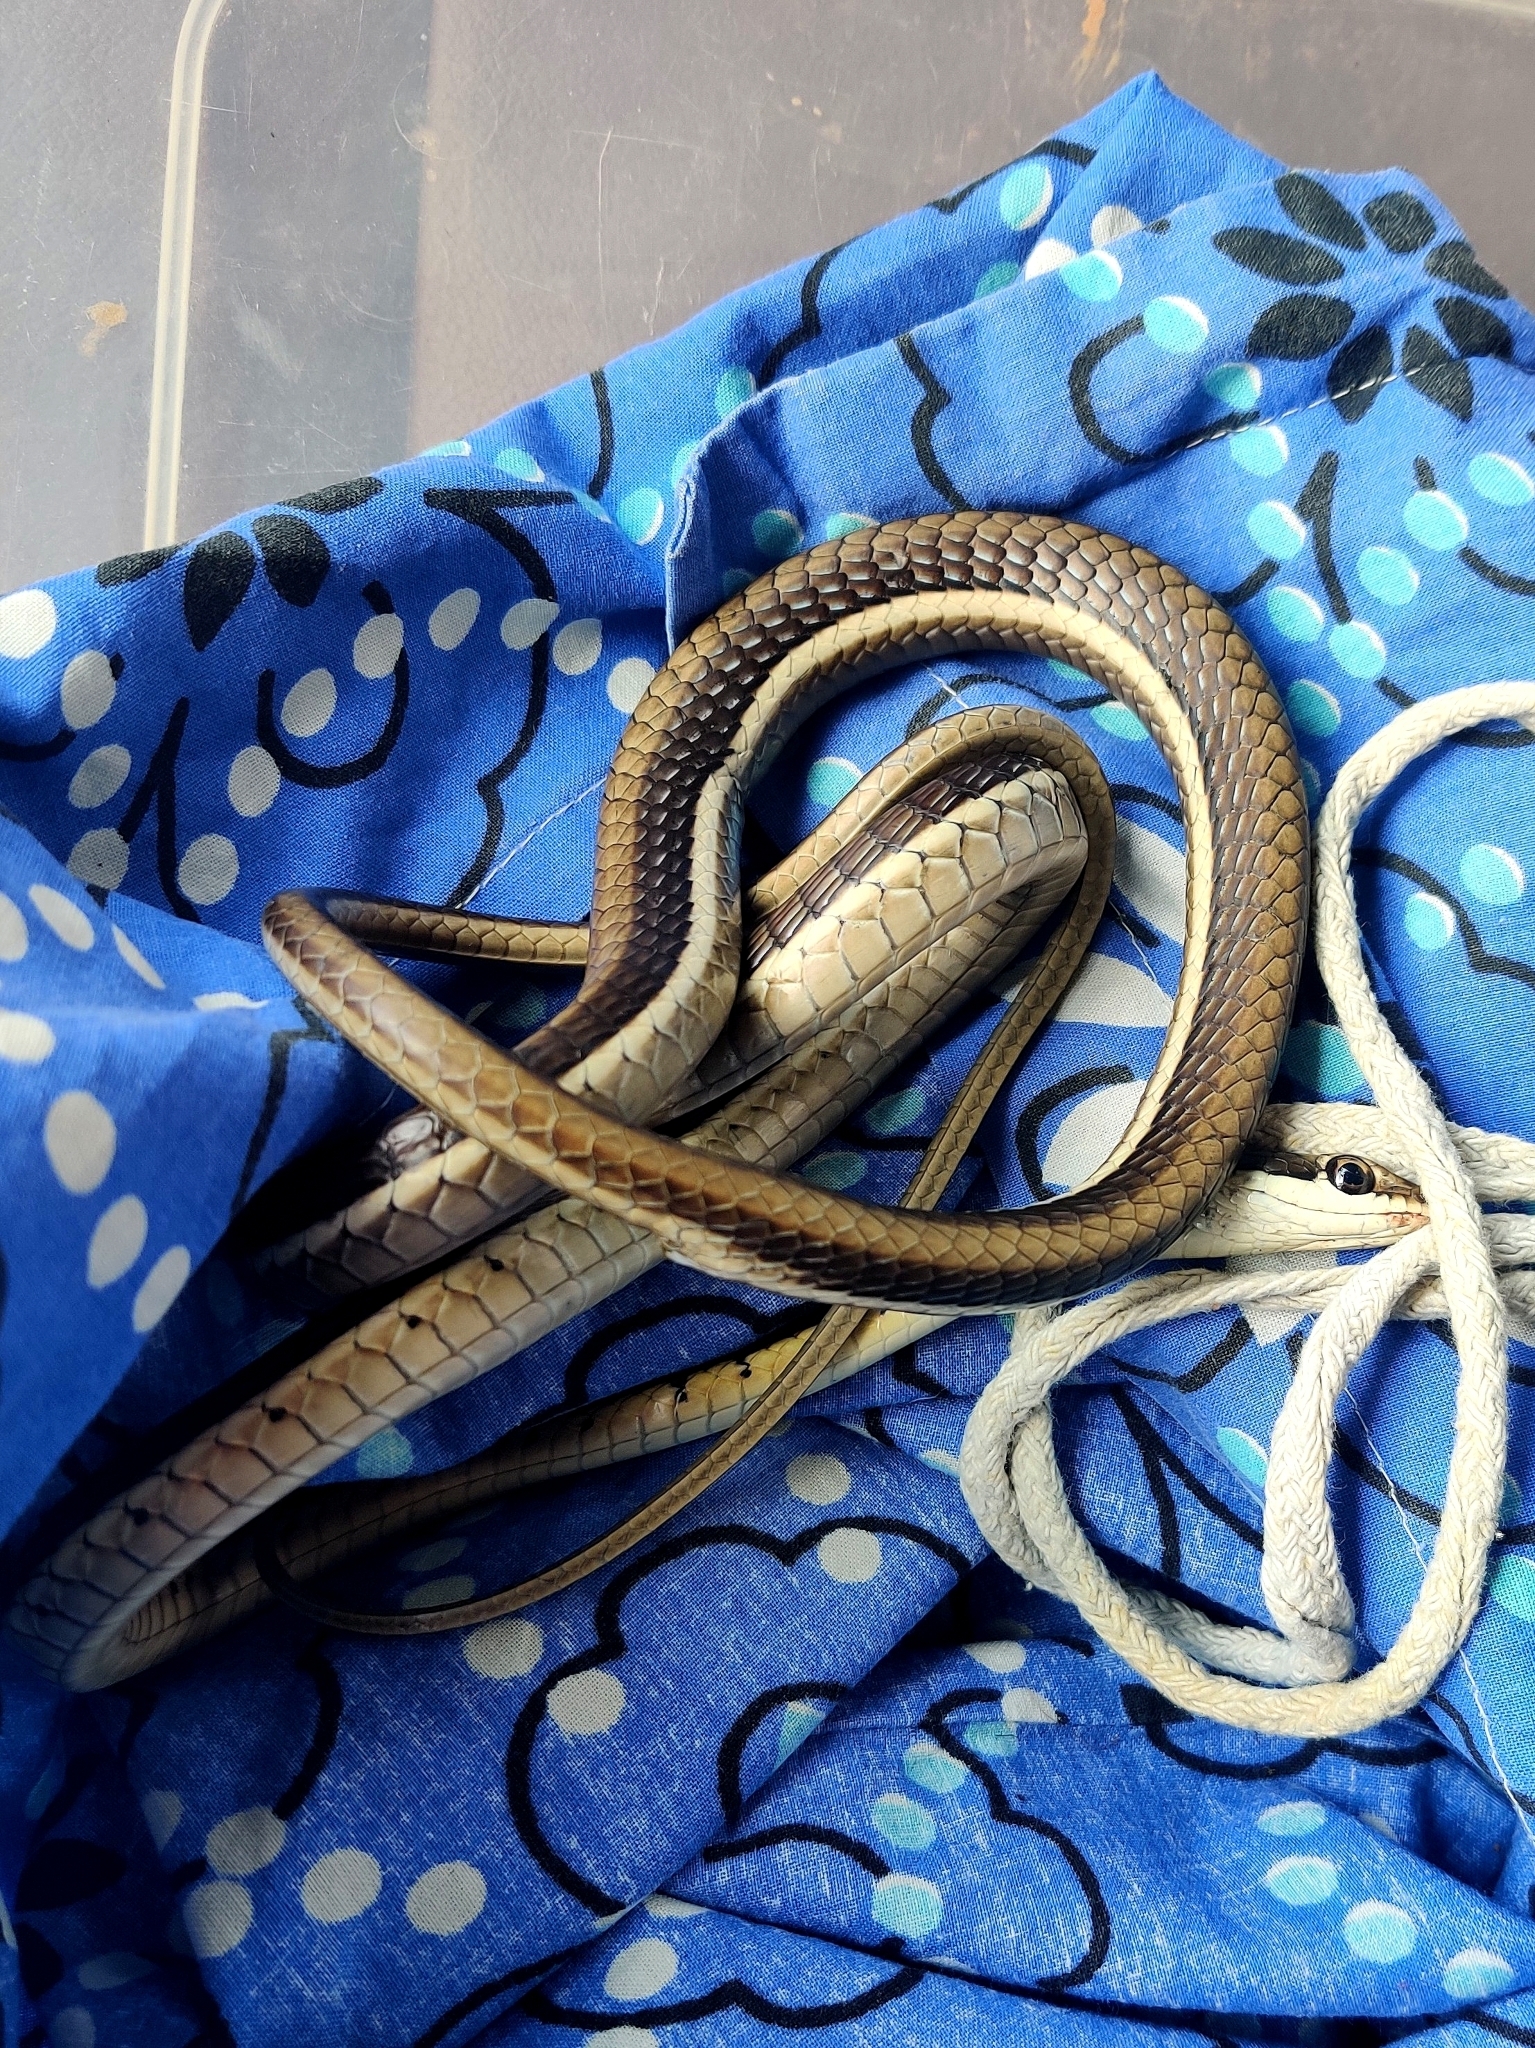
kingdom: Animalia
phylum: Chordata
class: Squamata
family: Colubridae
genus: Dendrelaphis
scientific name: Dendrelaphis tristis
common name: Daudin's bronzeback
